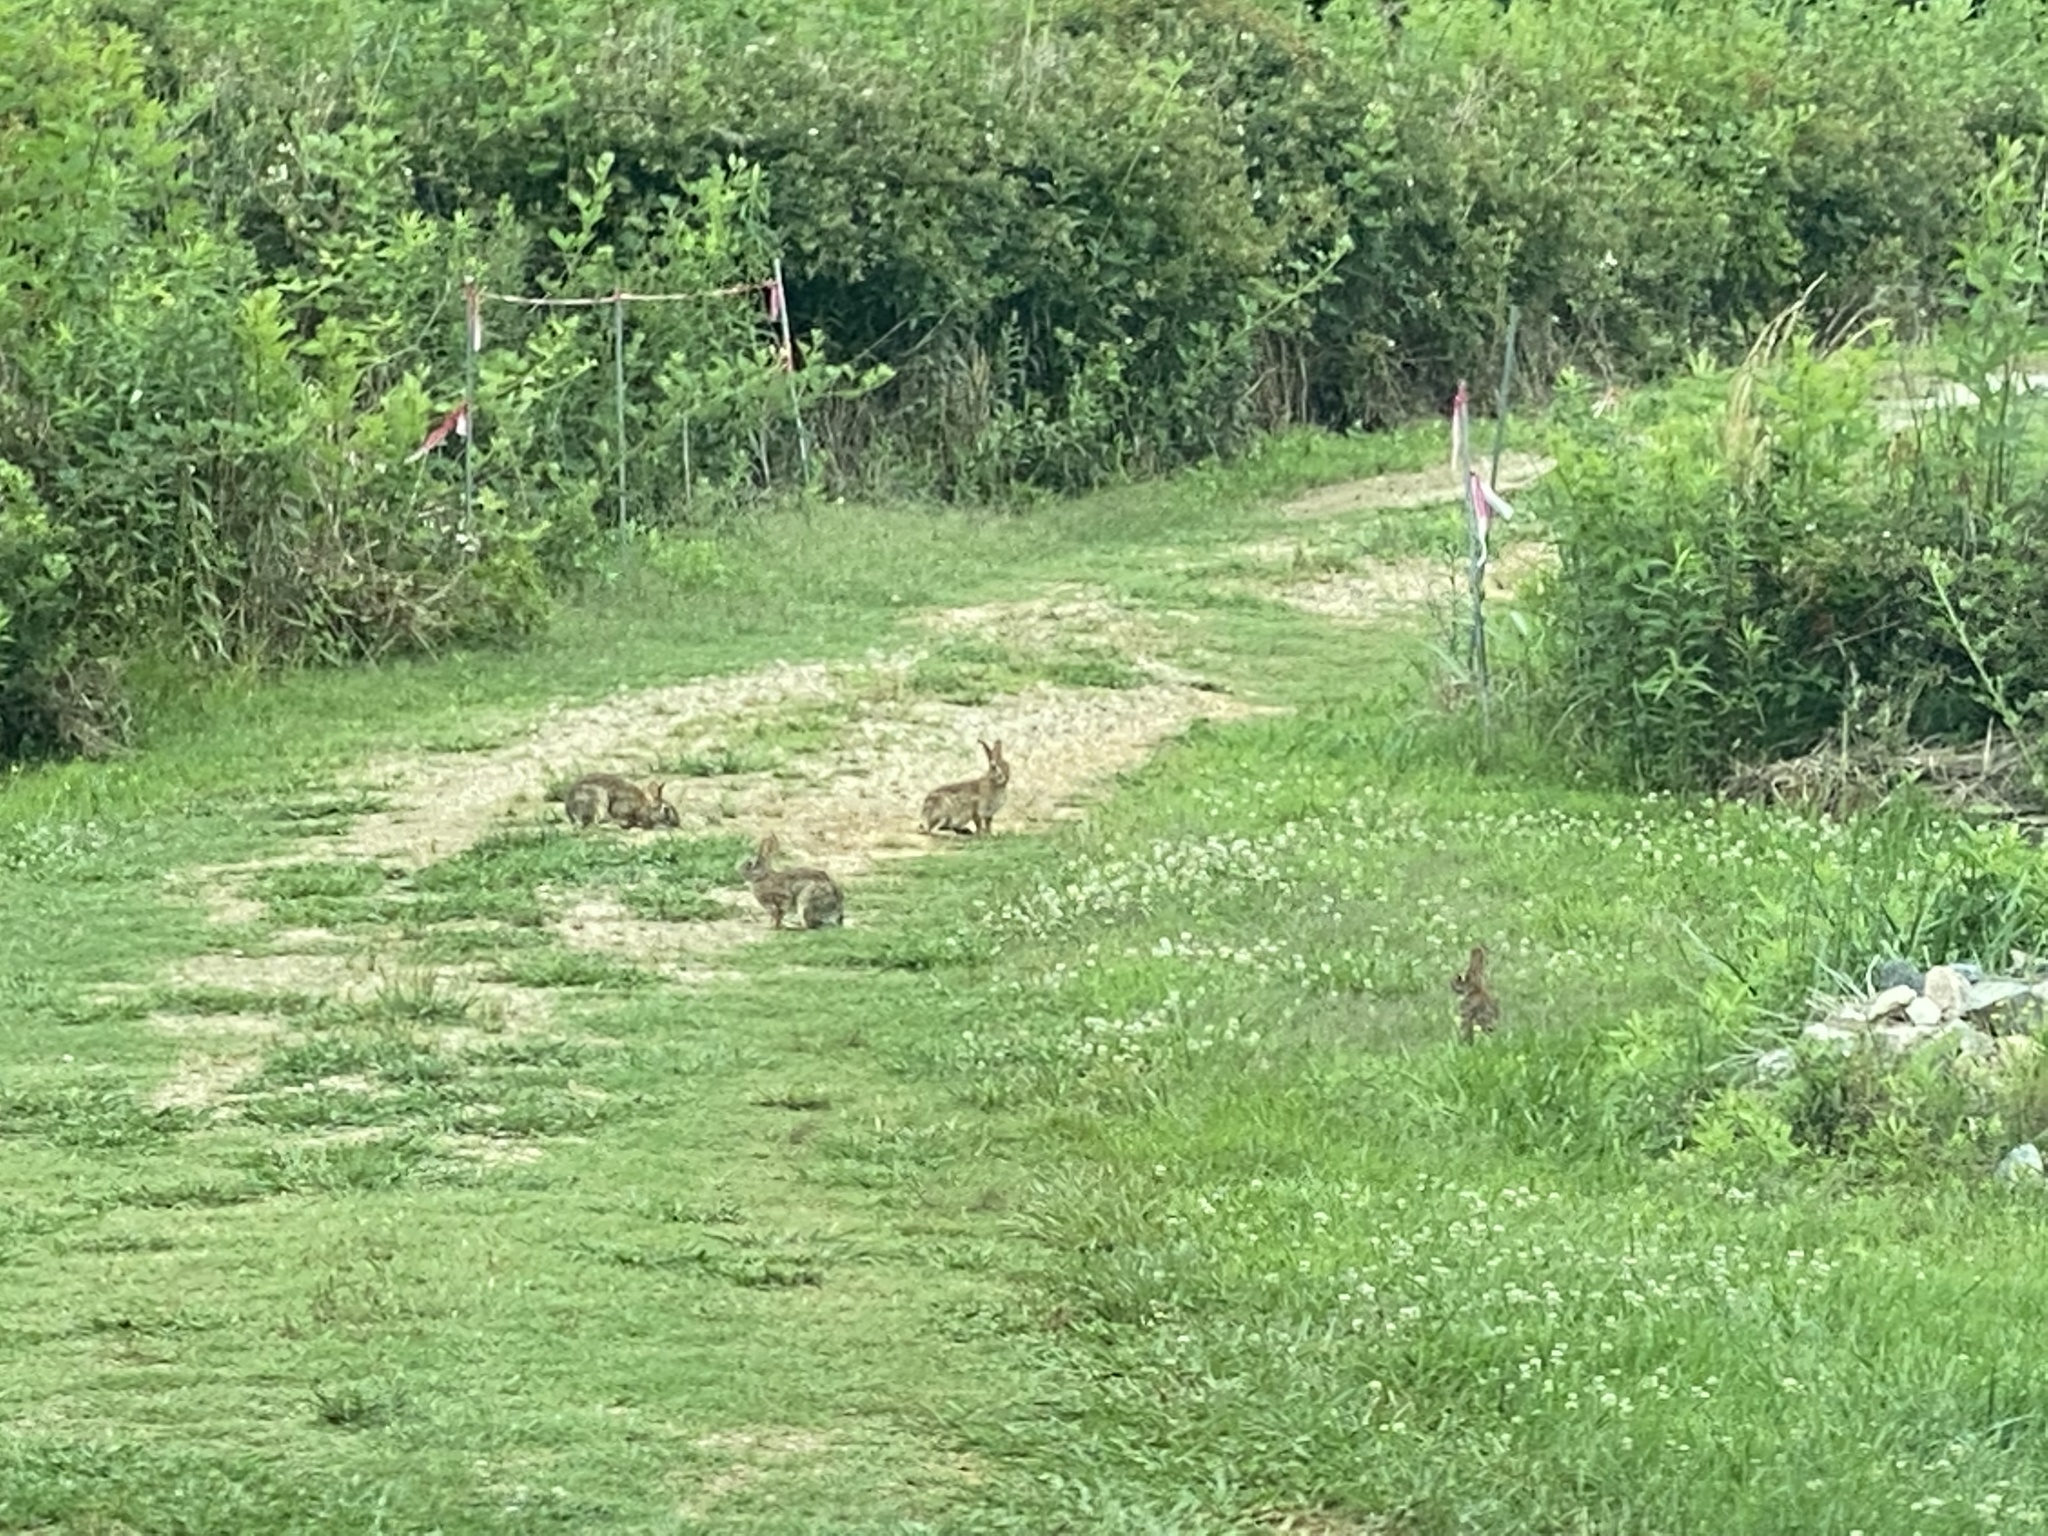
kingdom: Animalia
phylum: Chordata
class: Mammalia
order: Lagomorpha
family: Leporidae
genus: Sylvilagus
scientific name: Sylvilagus floridanus
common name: Eastern cottontail
